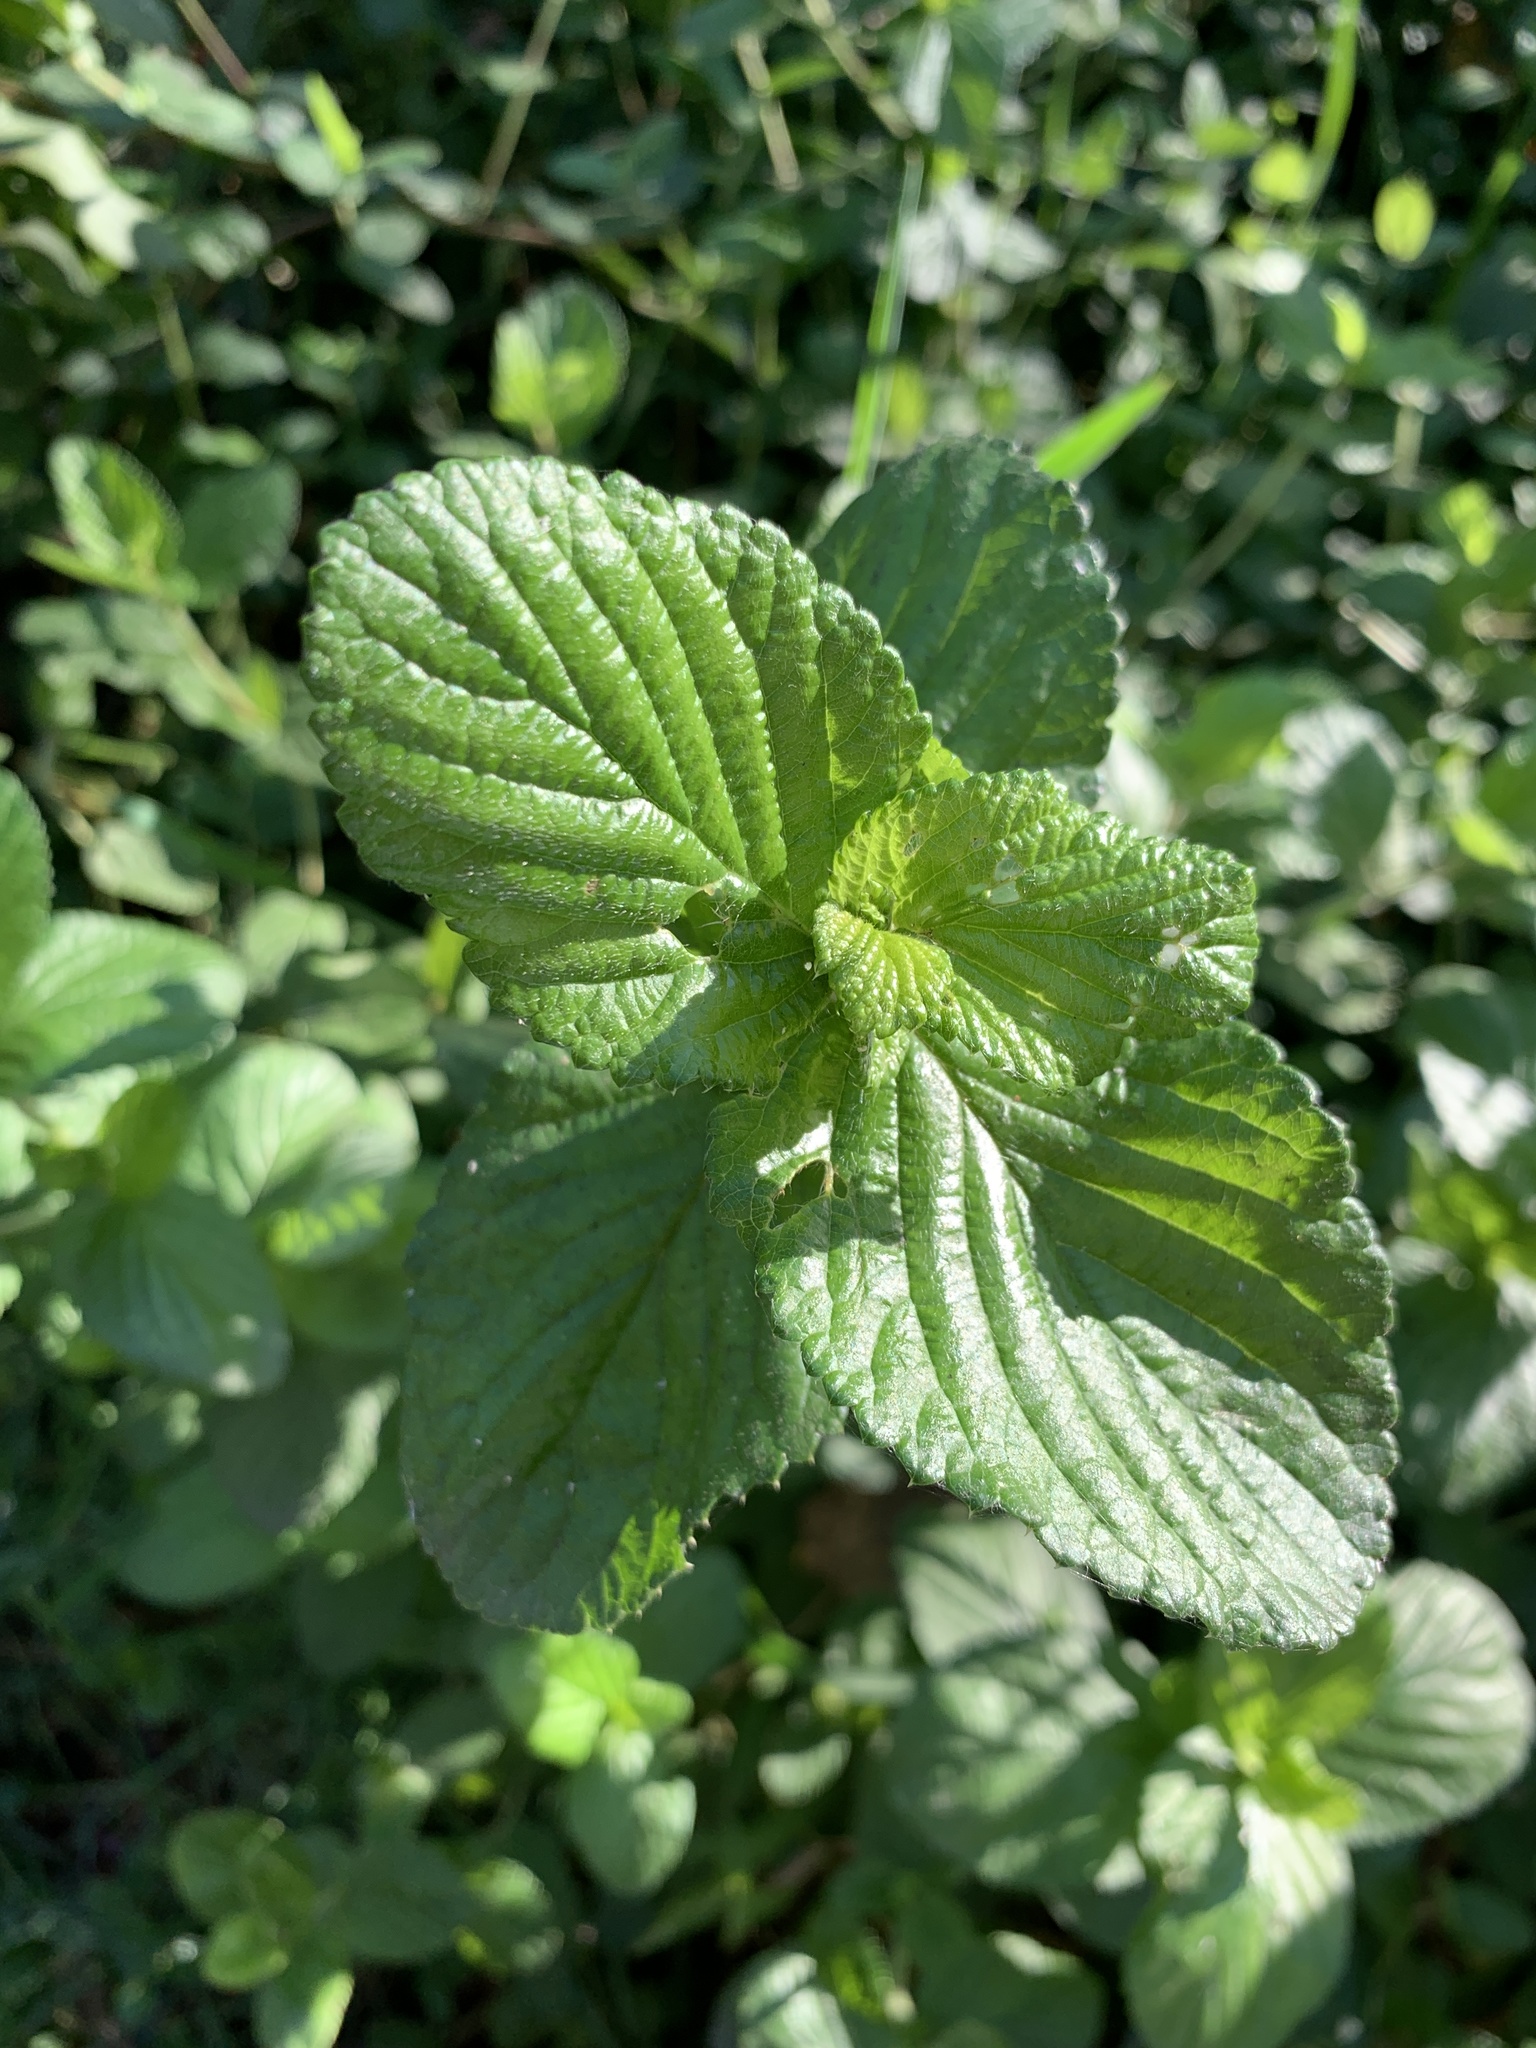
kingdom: Plantae
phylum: Tracheophyta
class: Magnoliopsida
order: Rosales
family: Rosaceae
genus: Cliffortia
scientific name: Cliffortia odorata
